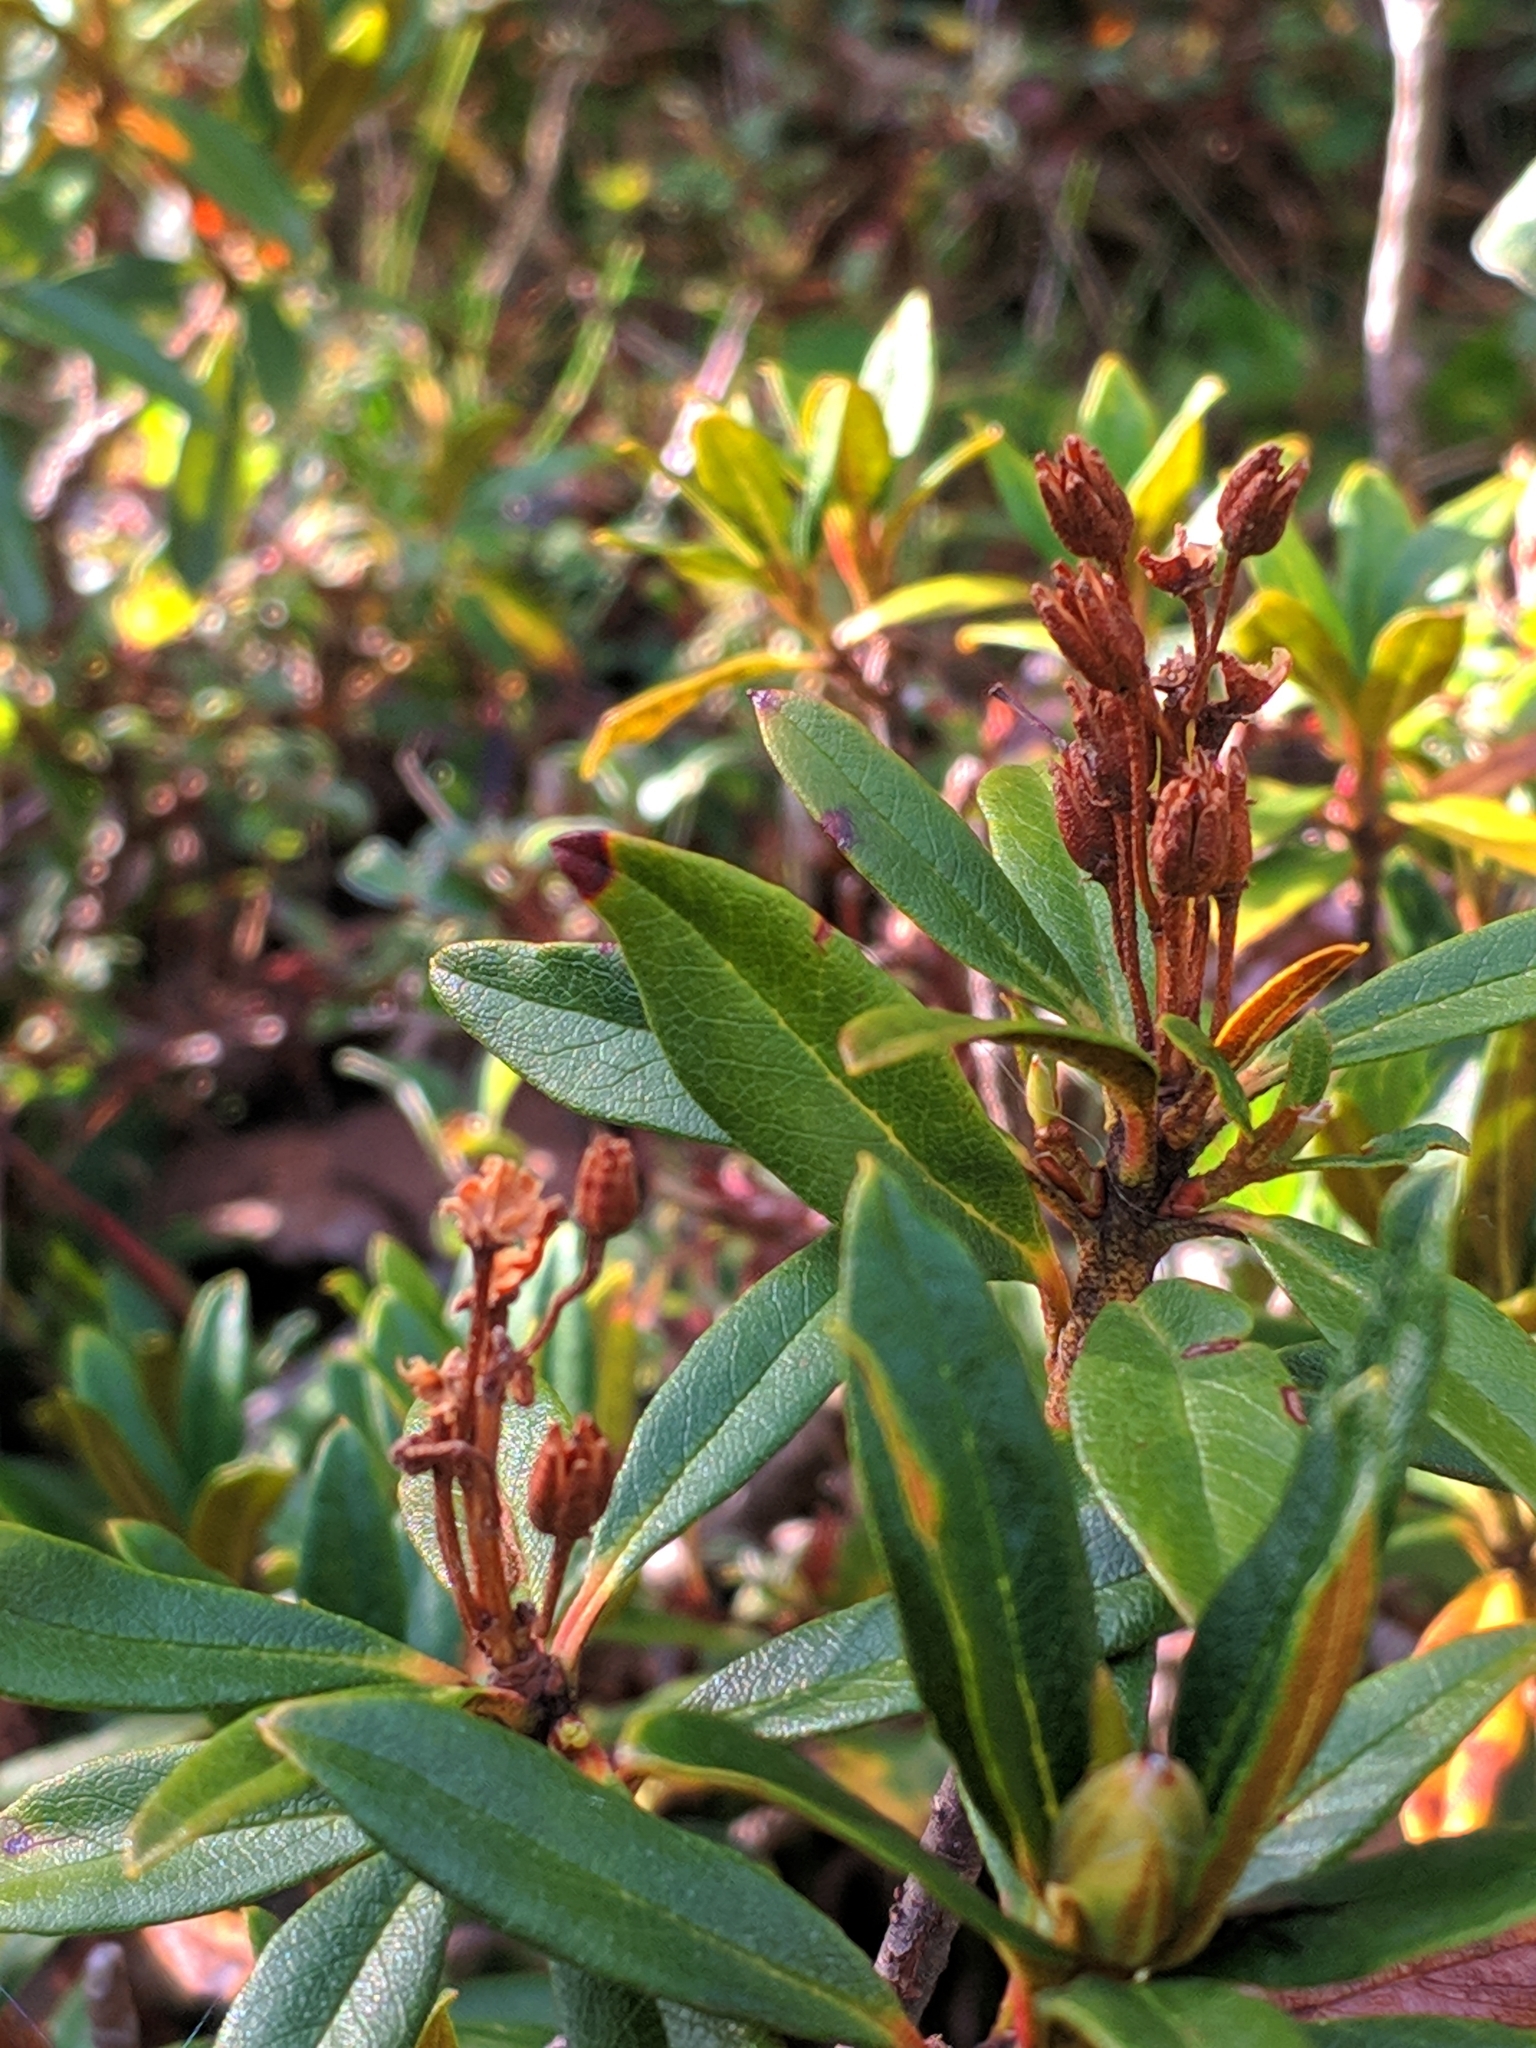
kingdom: Plantae
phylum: Tracheophyta
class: Magnoliopsida
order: Ericales
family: Ericaceae
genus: Rhododendron
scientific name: Rhododendron ferrugineum
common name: Alpenrose
